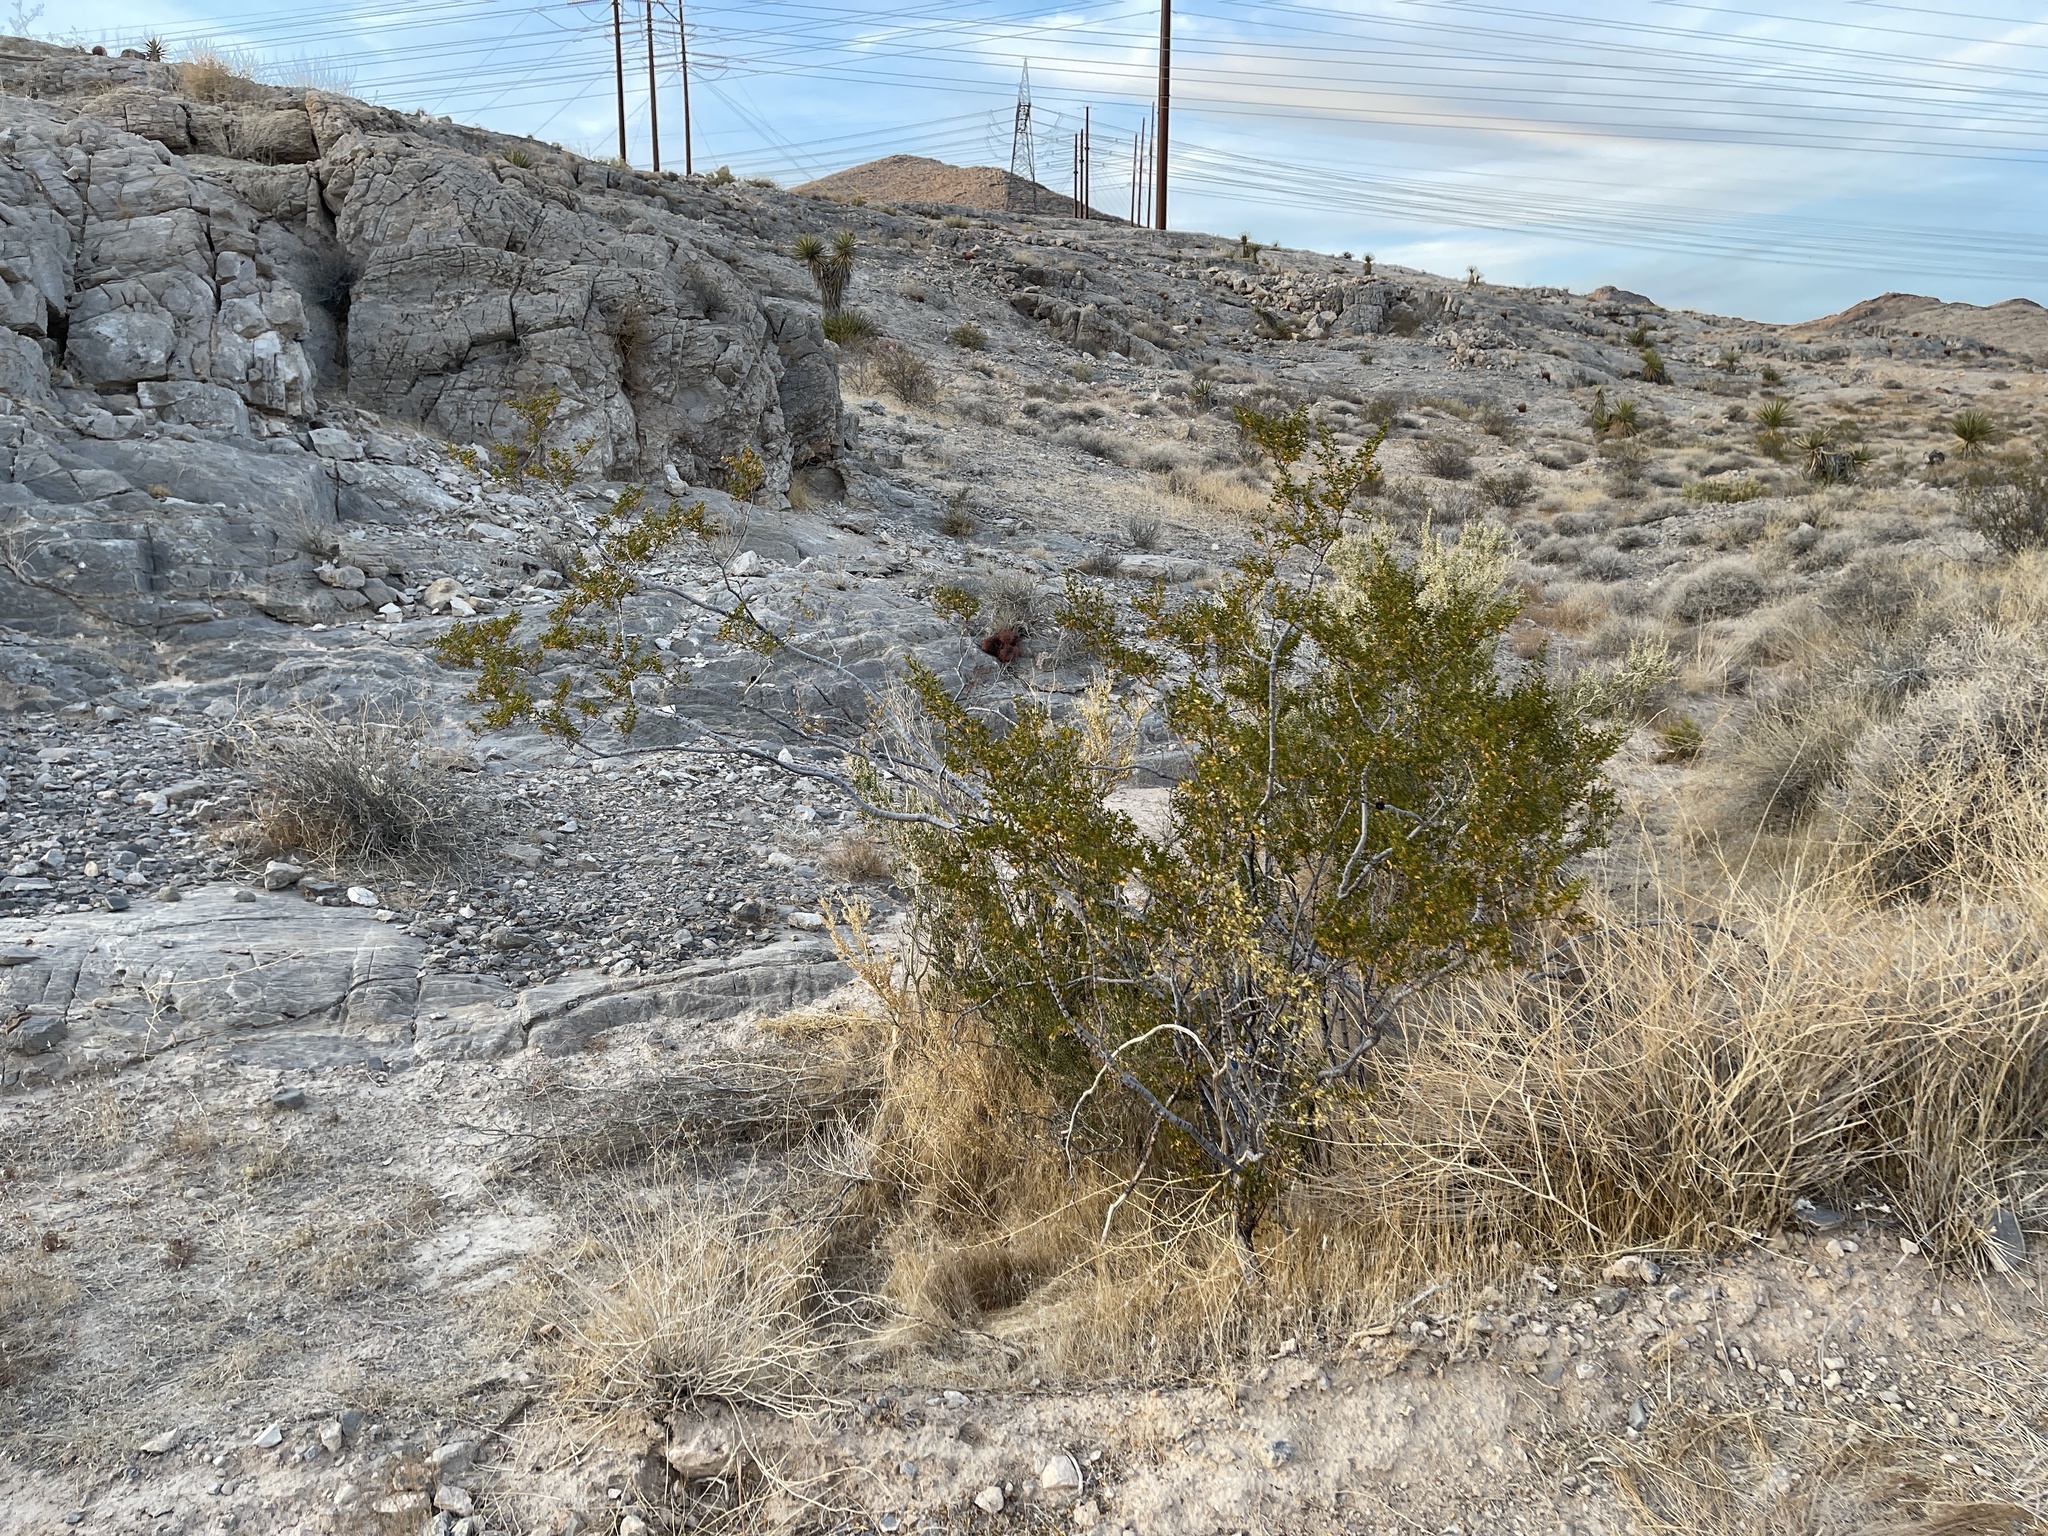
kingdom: Plantae
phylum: Tracheophyta
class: Magnoliopsida
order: Zygophyllales
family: Zygophyllaceae
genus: Larrea
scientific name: Larrea tridentata
